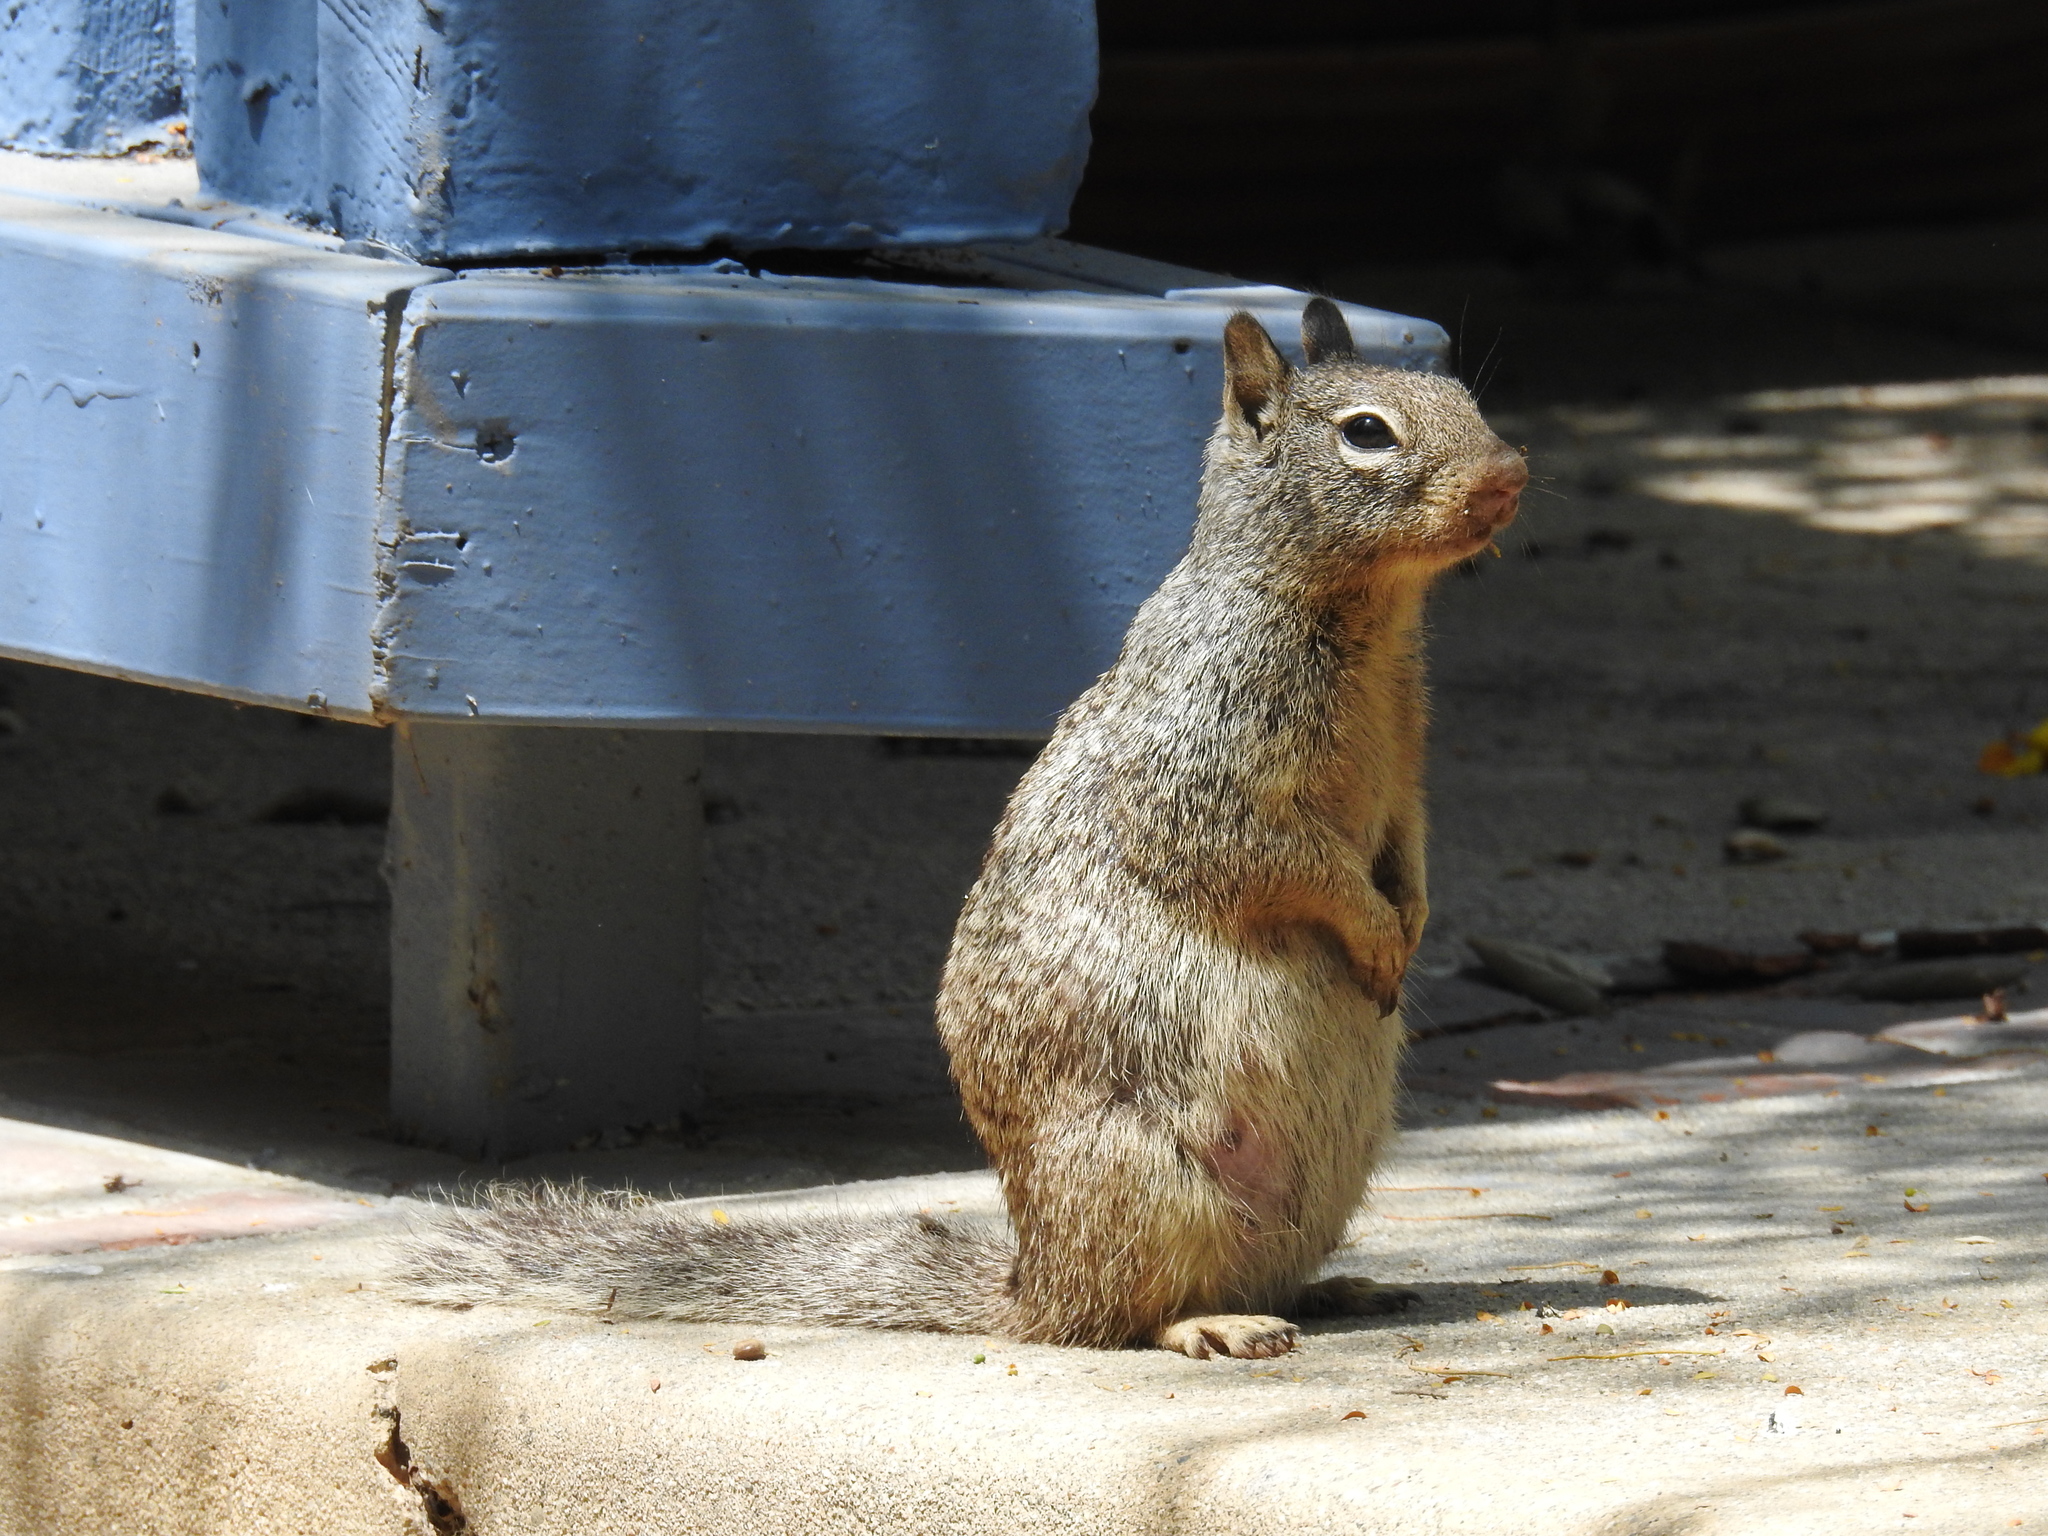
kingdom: Animalia
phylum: Chordata
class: Mammalia
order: Rodentia
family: Sciuridae
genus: Otospermophilus
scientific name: Otospermophilus beecheyi
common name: California ground squirrel
